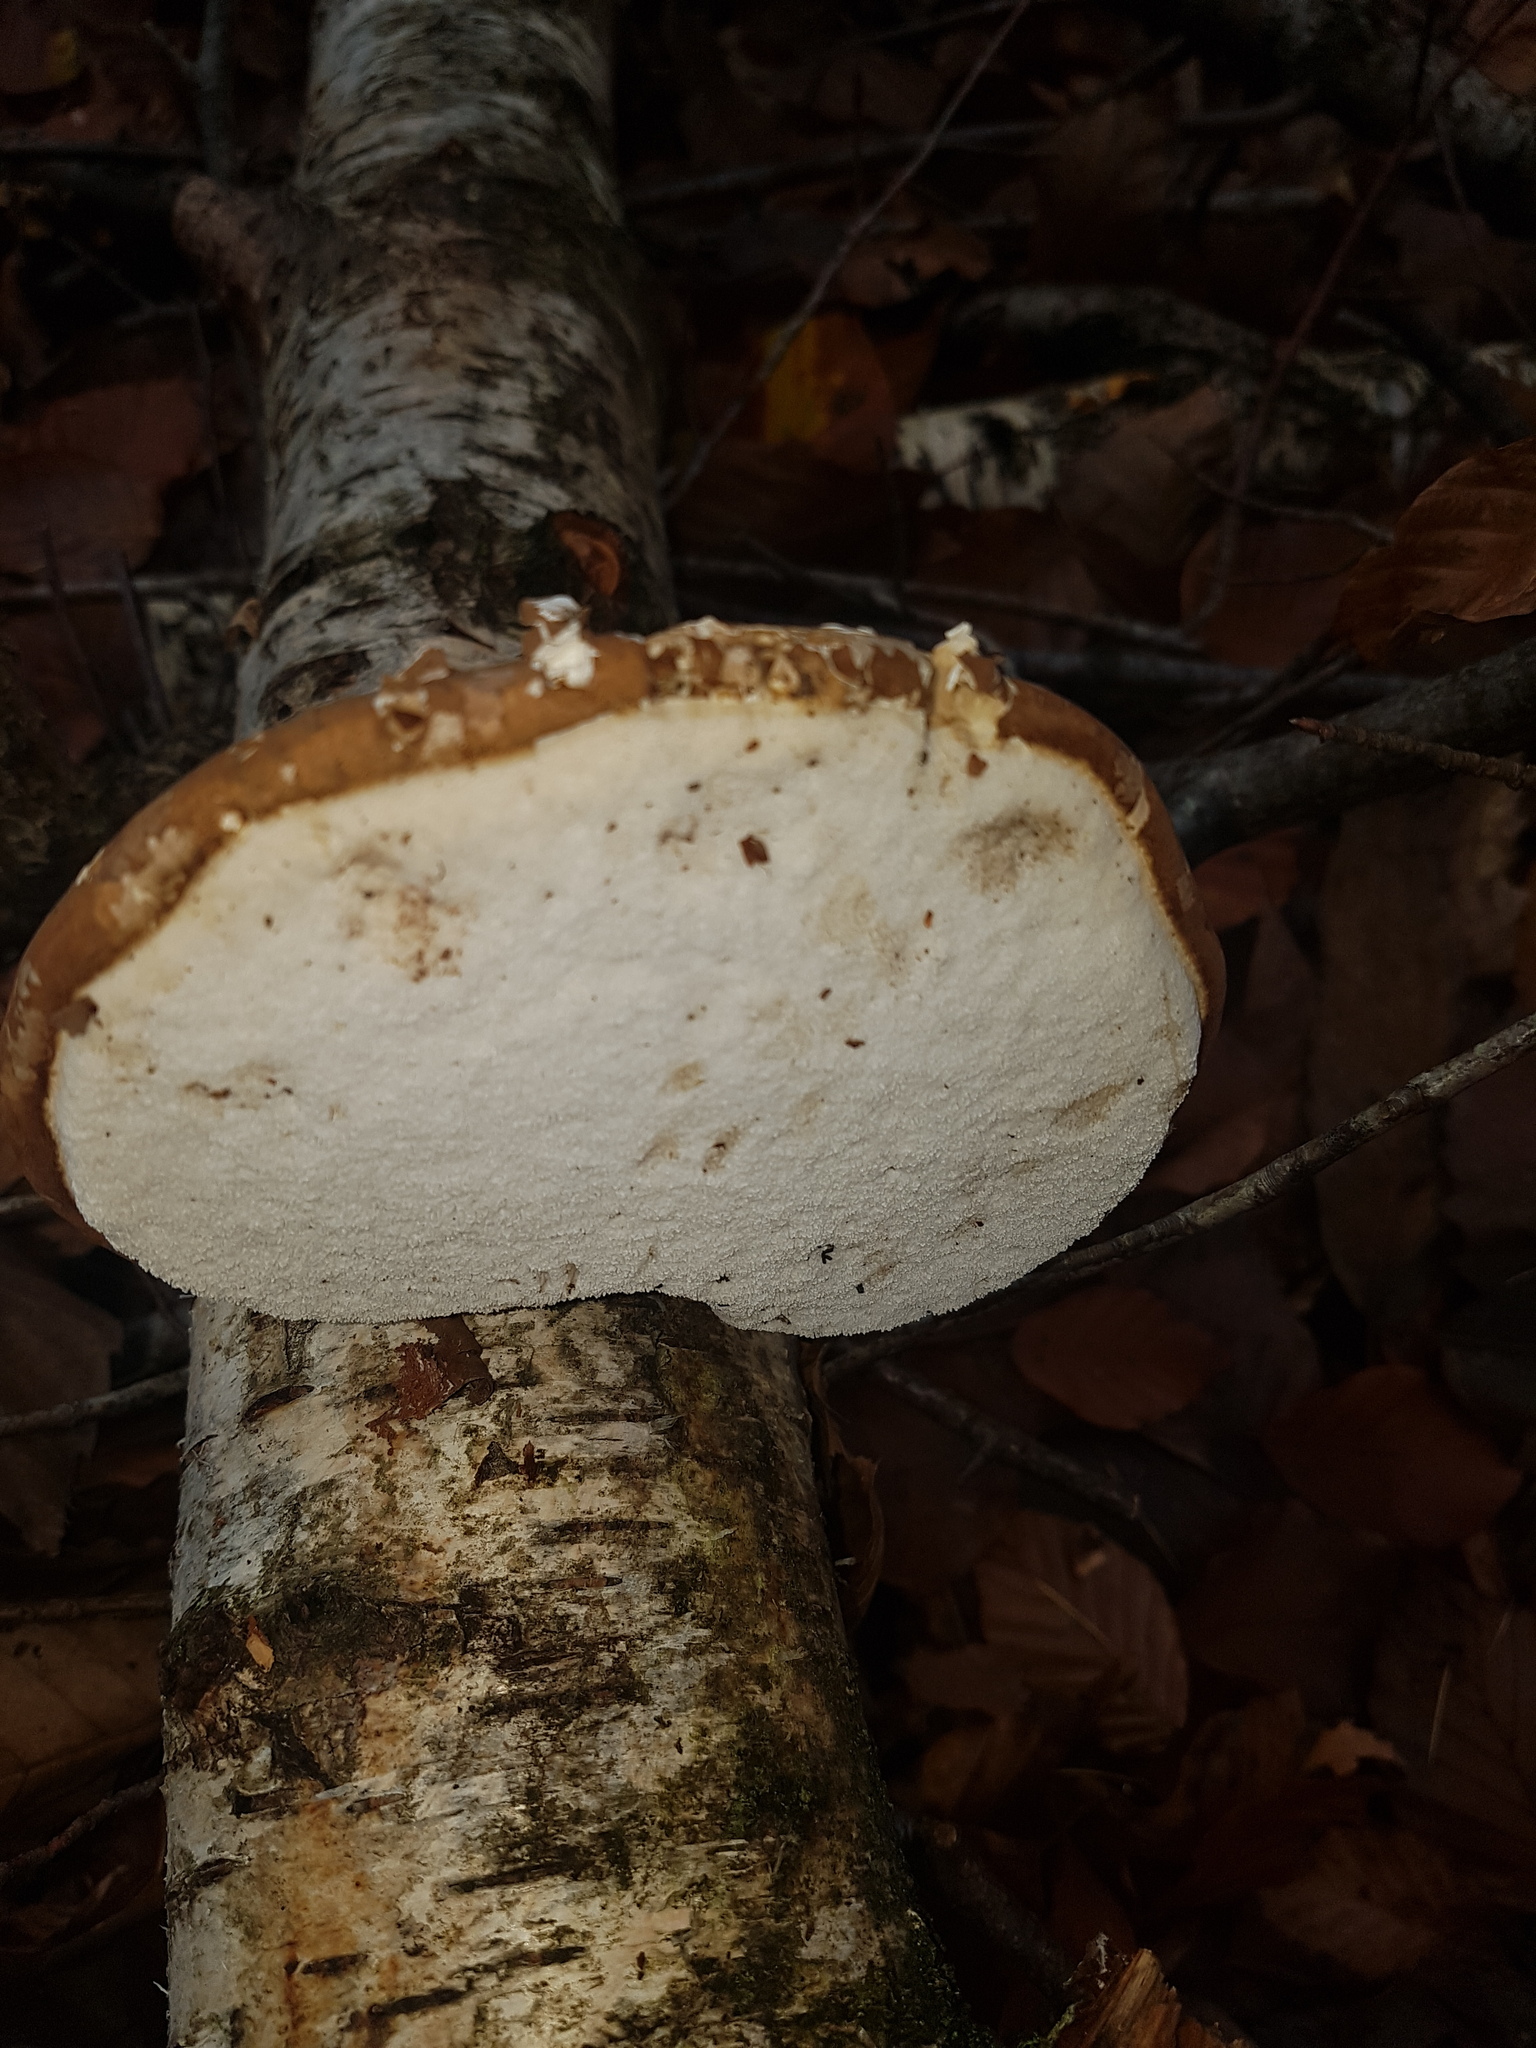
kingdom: Fungi
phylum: Basidiomycota
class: Agaricomycetes
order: Polyporales
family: Fomitopsidaceae
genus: Fomitopsis
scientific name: Fomitopsis betulina
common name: Birch polypore
